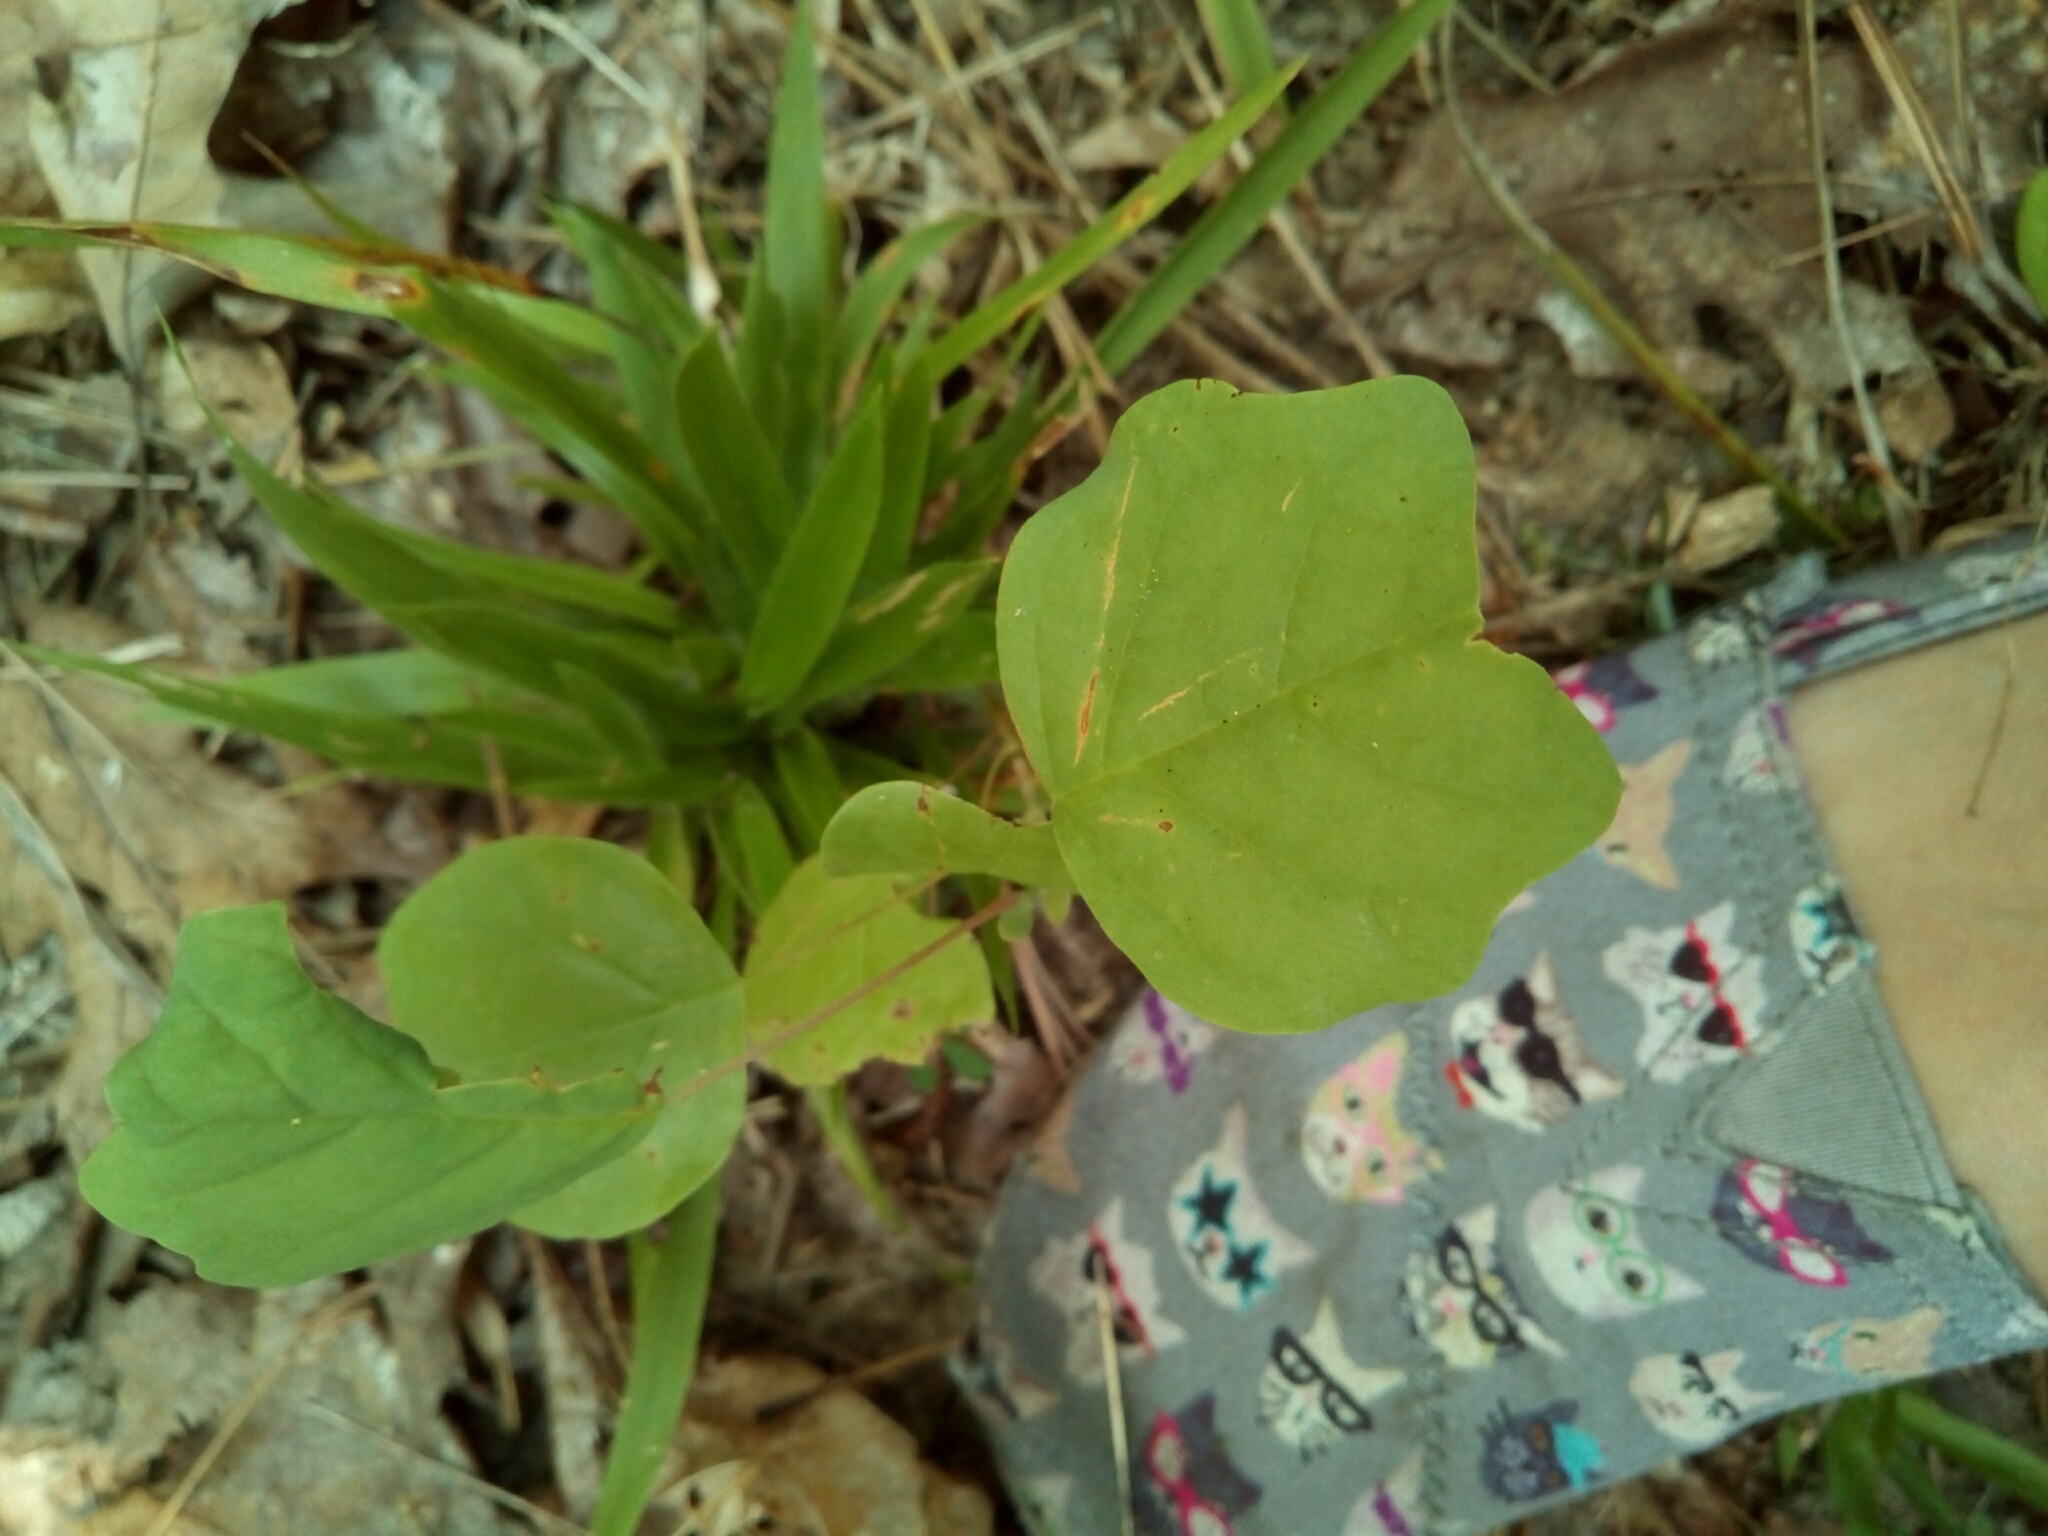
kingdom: Plantae
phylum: Tracheophyta
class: Magnoliopsida
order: Magnoliales
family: Magnoliaceae
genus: Liriodendron
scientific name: Liriodendron tulipifera
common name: Tulip tree
